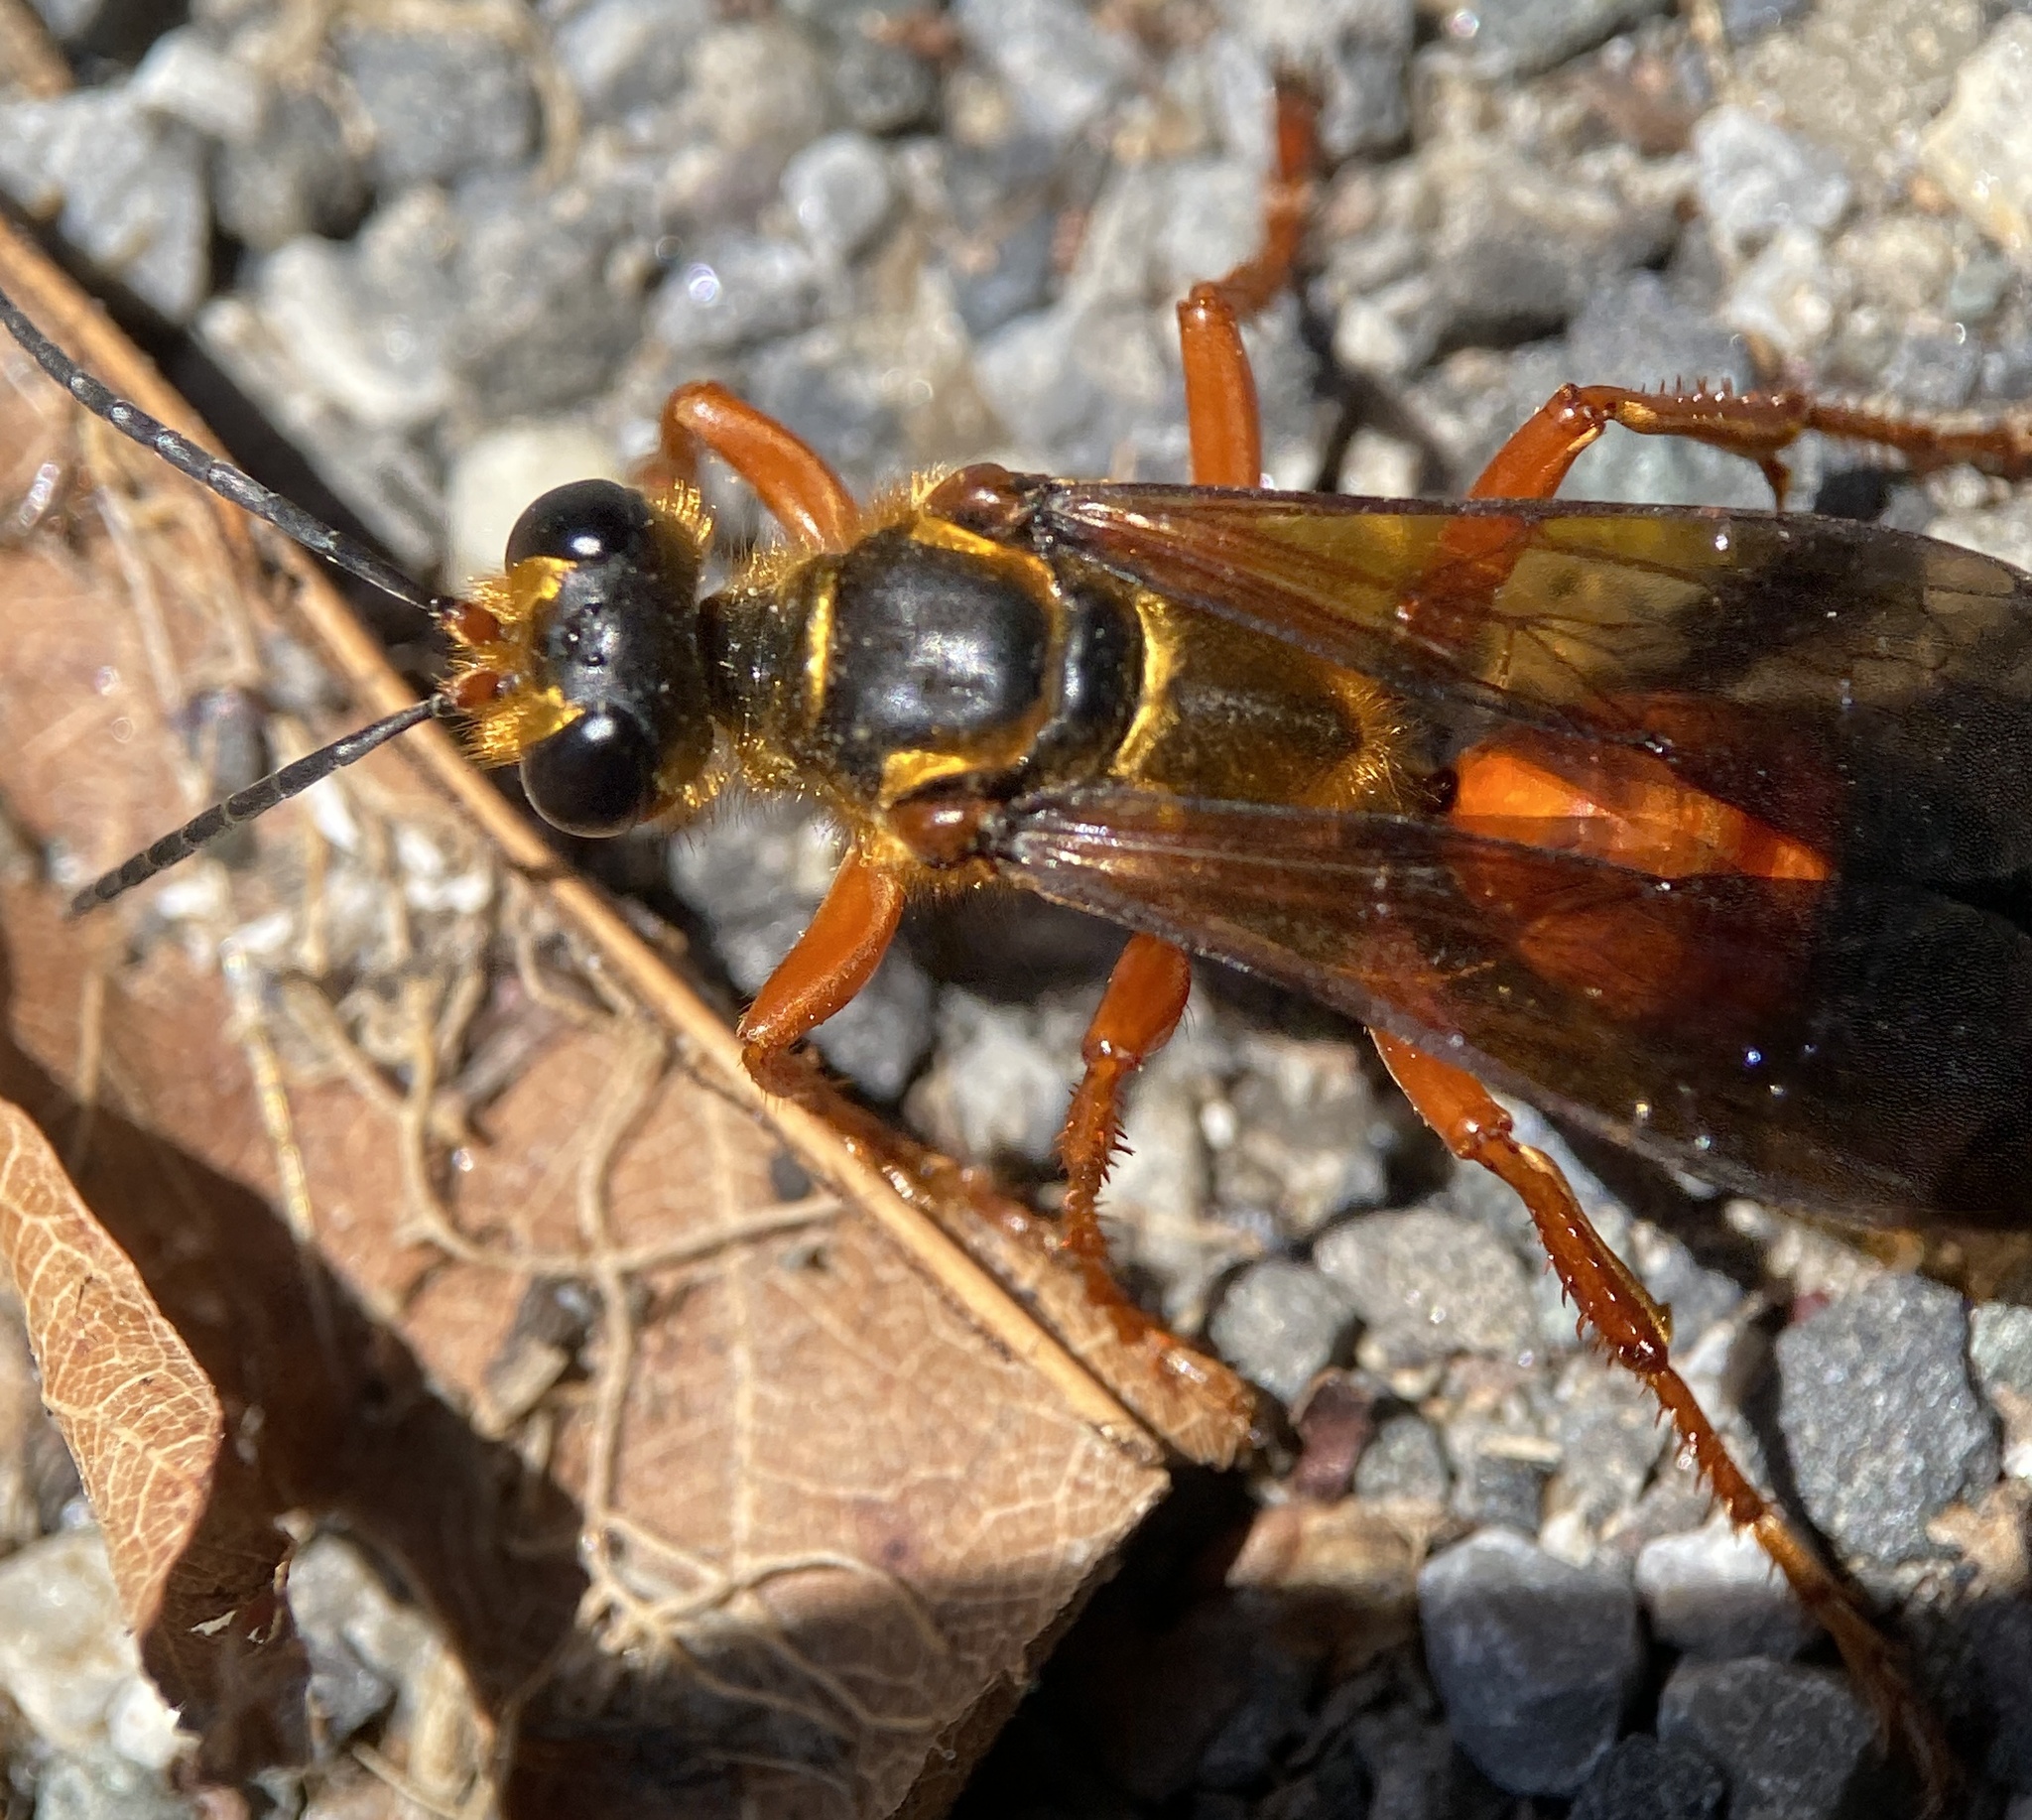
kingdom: Animalia
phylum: Arthropoda
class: Insecta
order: Hymenoptera
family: Sphecidae
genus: Sphex
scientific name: Sphex ichneumoneus
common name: Great golden digger wasp
